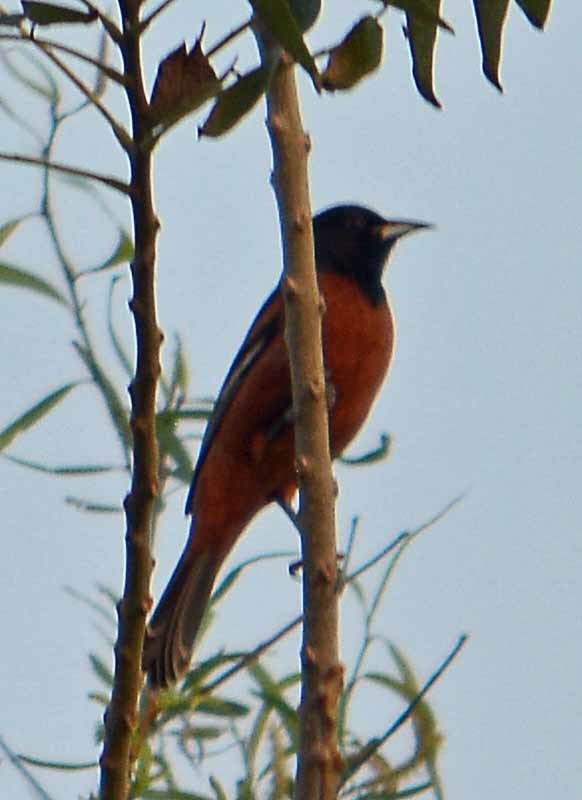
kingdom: Animalia
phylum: Chordata
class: Aves
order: Passeriformes
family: Icteridae
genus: Icterus
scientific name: Icterus spurius
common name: Orchard oriole
